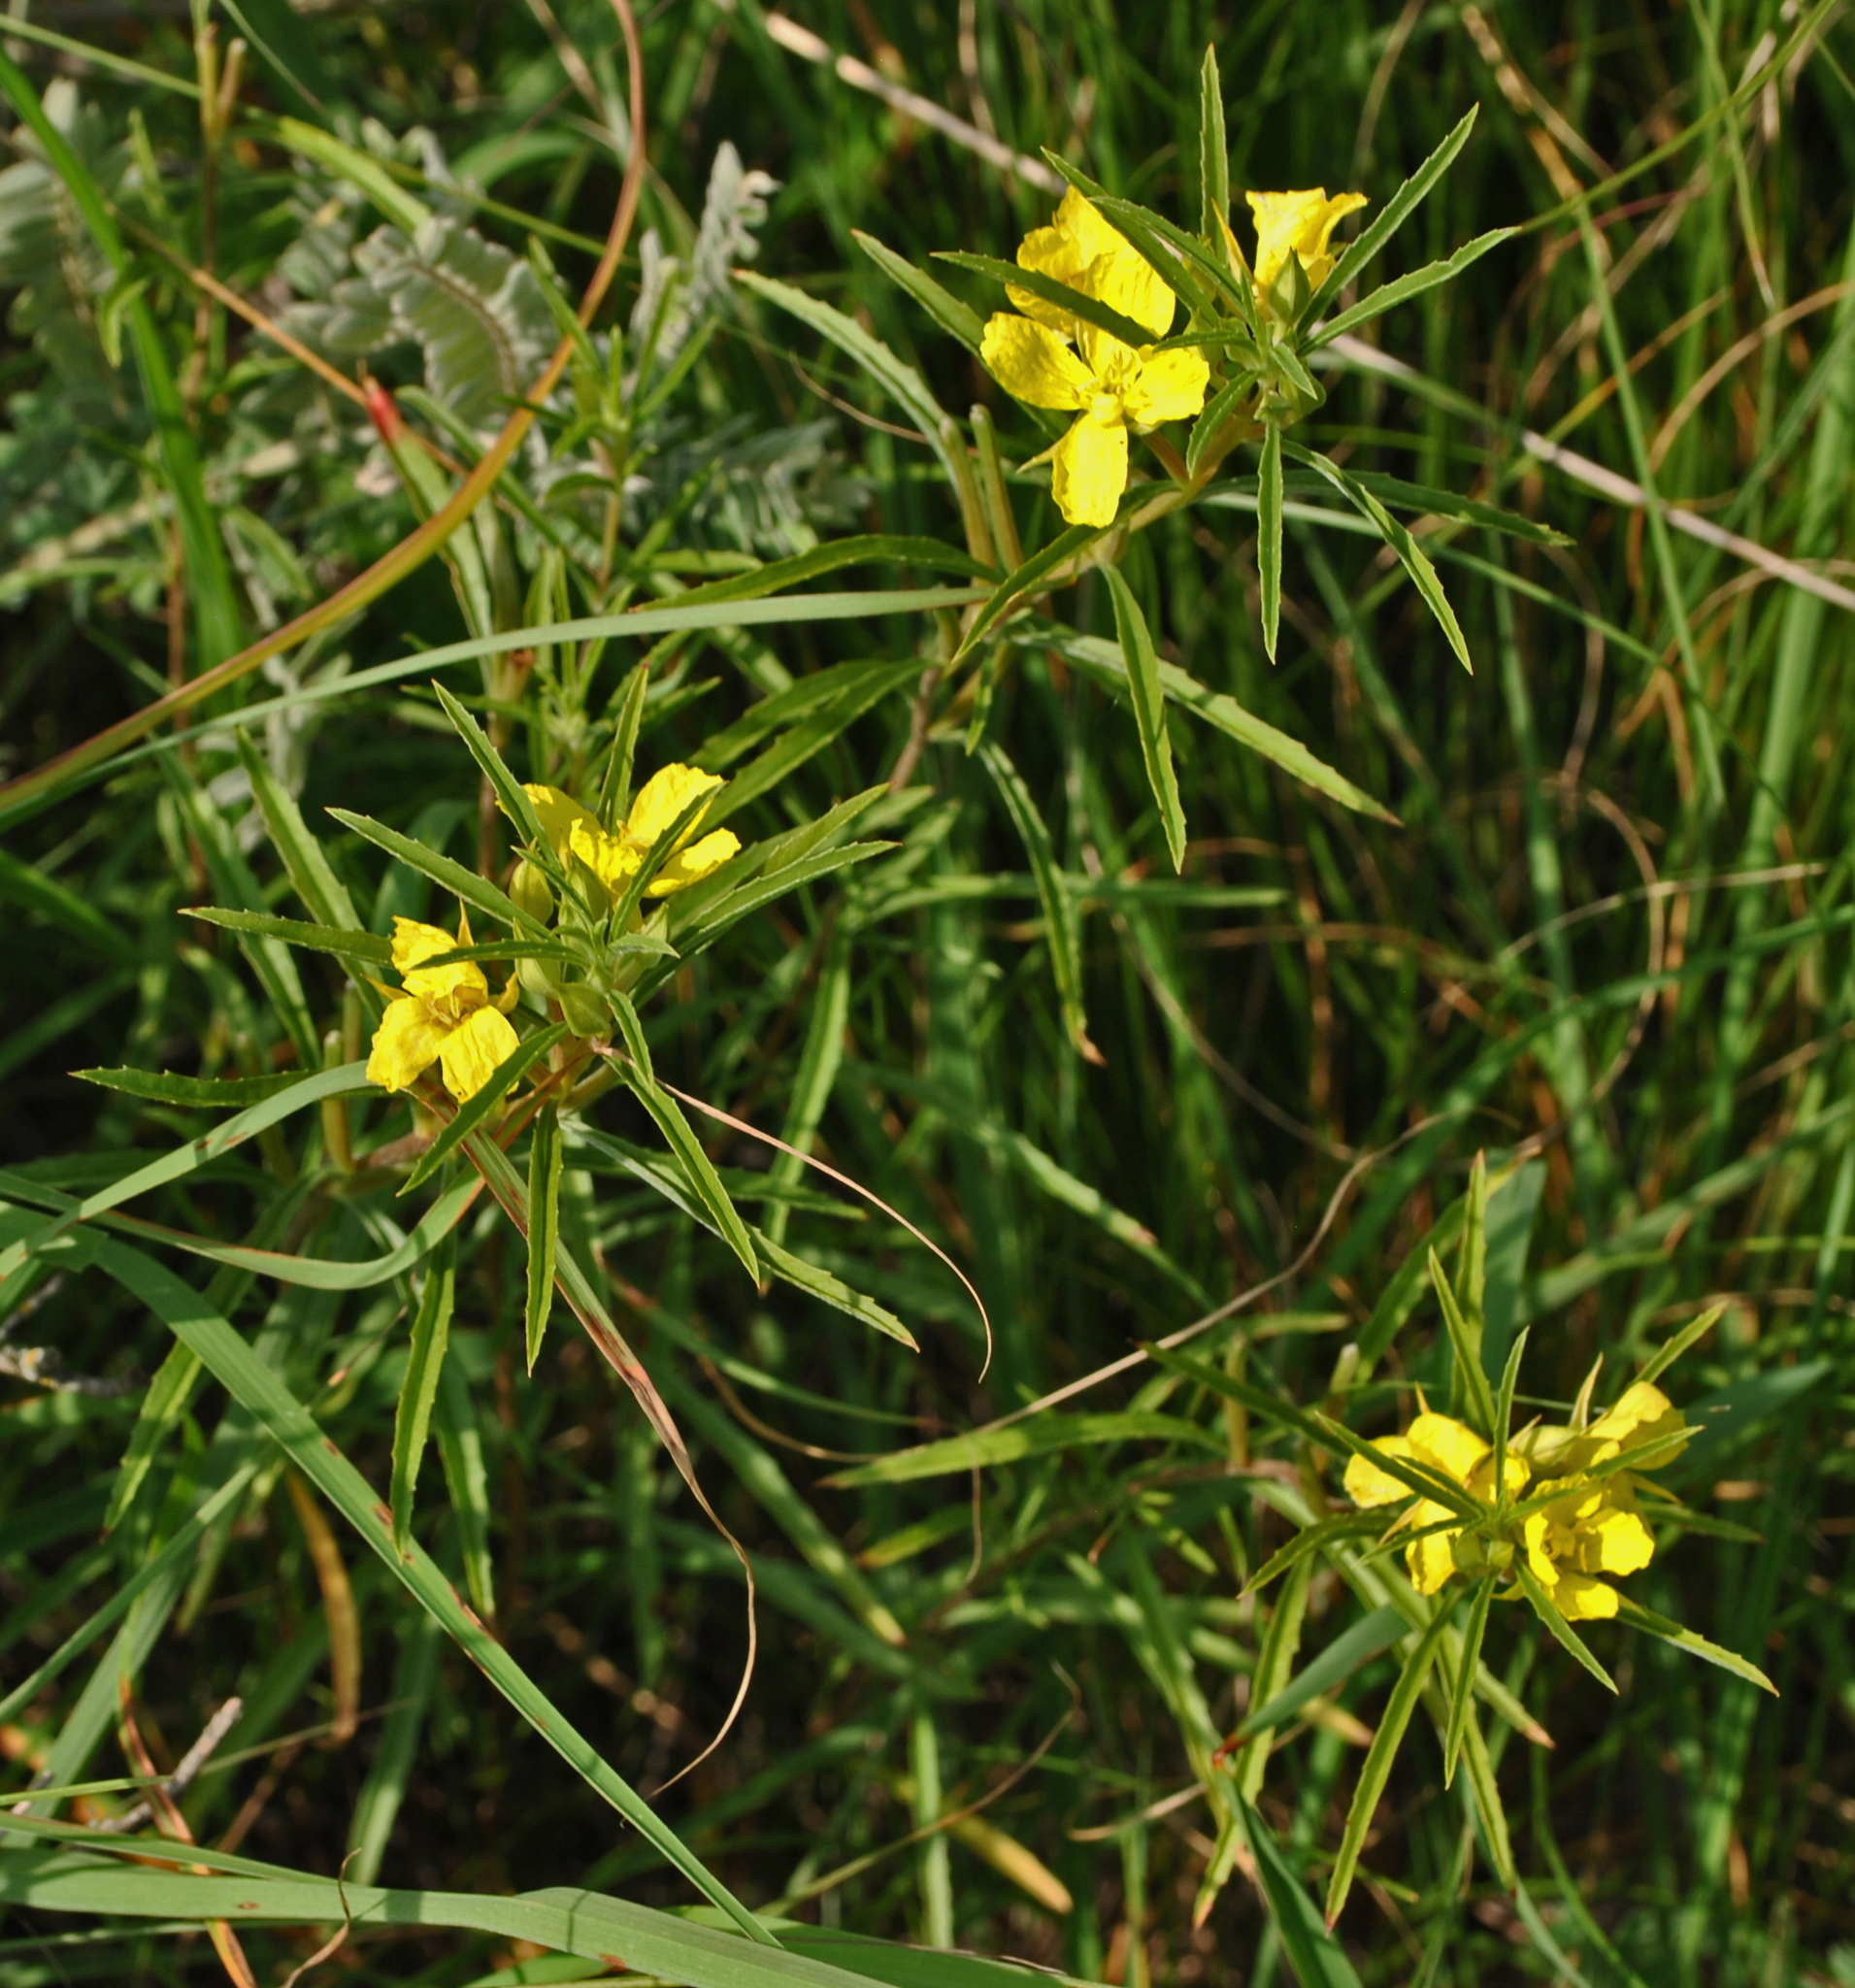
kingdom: Plantae
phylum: Tracheophyta
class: Magnoliopsida
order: Myrtales
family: Onagraceae
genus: Oenothera
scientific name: Oenothera serrulata
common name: Half-shrub calylophus
